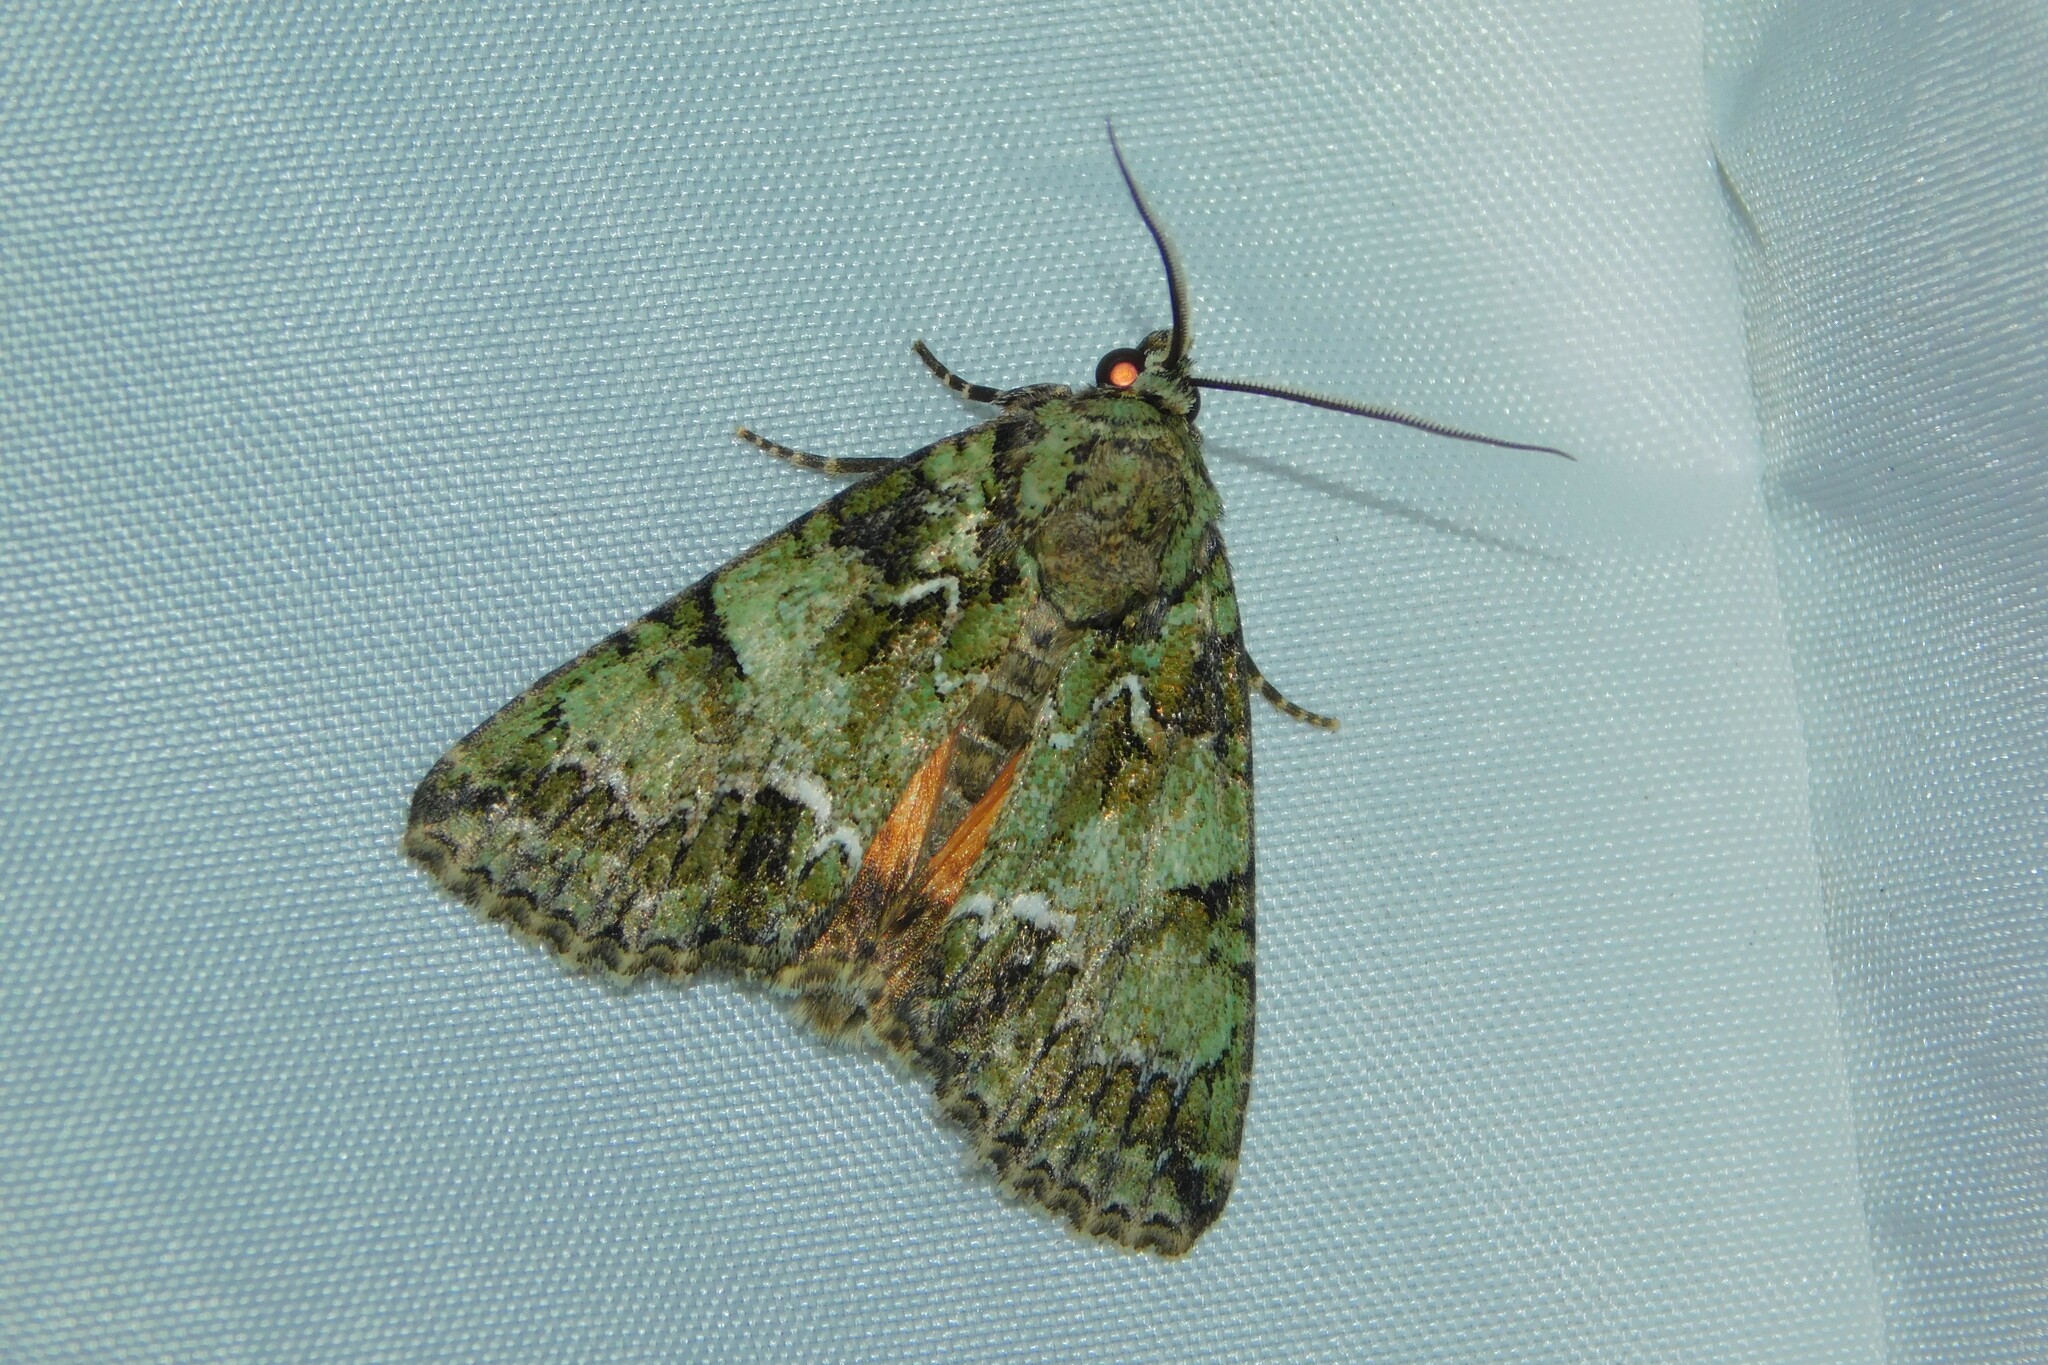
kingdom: Animalia
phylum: Arthropoda
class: Insecta
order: Lepidoptera
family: Noctuidae
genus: Polyphaenis
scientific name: Polyphaenis sericata
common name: Guernsey underwing
